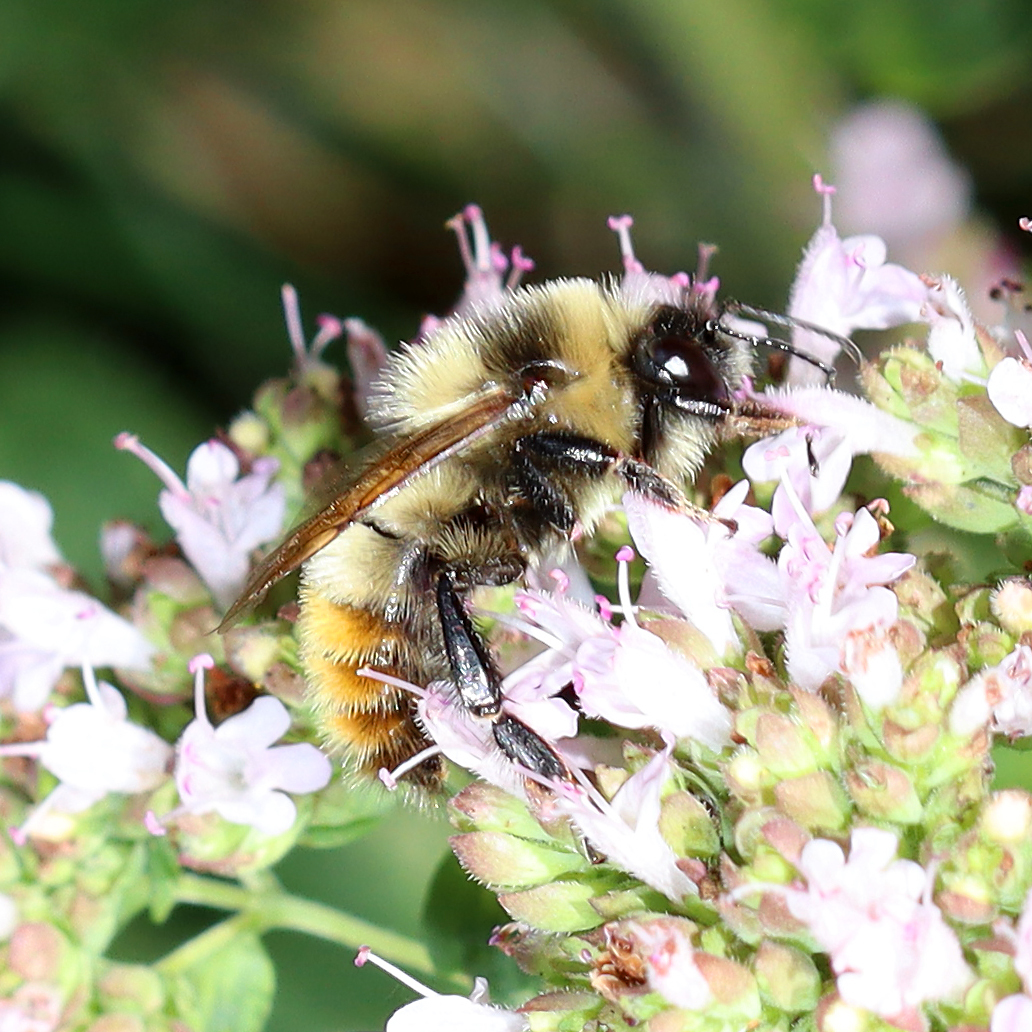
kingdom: Animalia
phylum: Arthropoda
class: Insecta
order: Hymenoptera
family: Apidae
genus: Bombus
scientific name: Bombus rufocinctus
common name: Red-belted bumble bee
